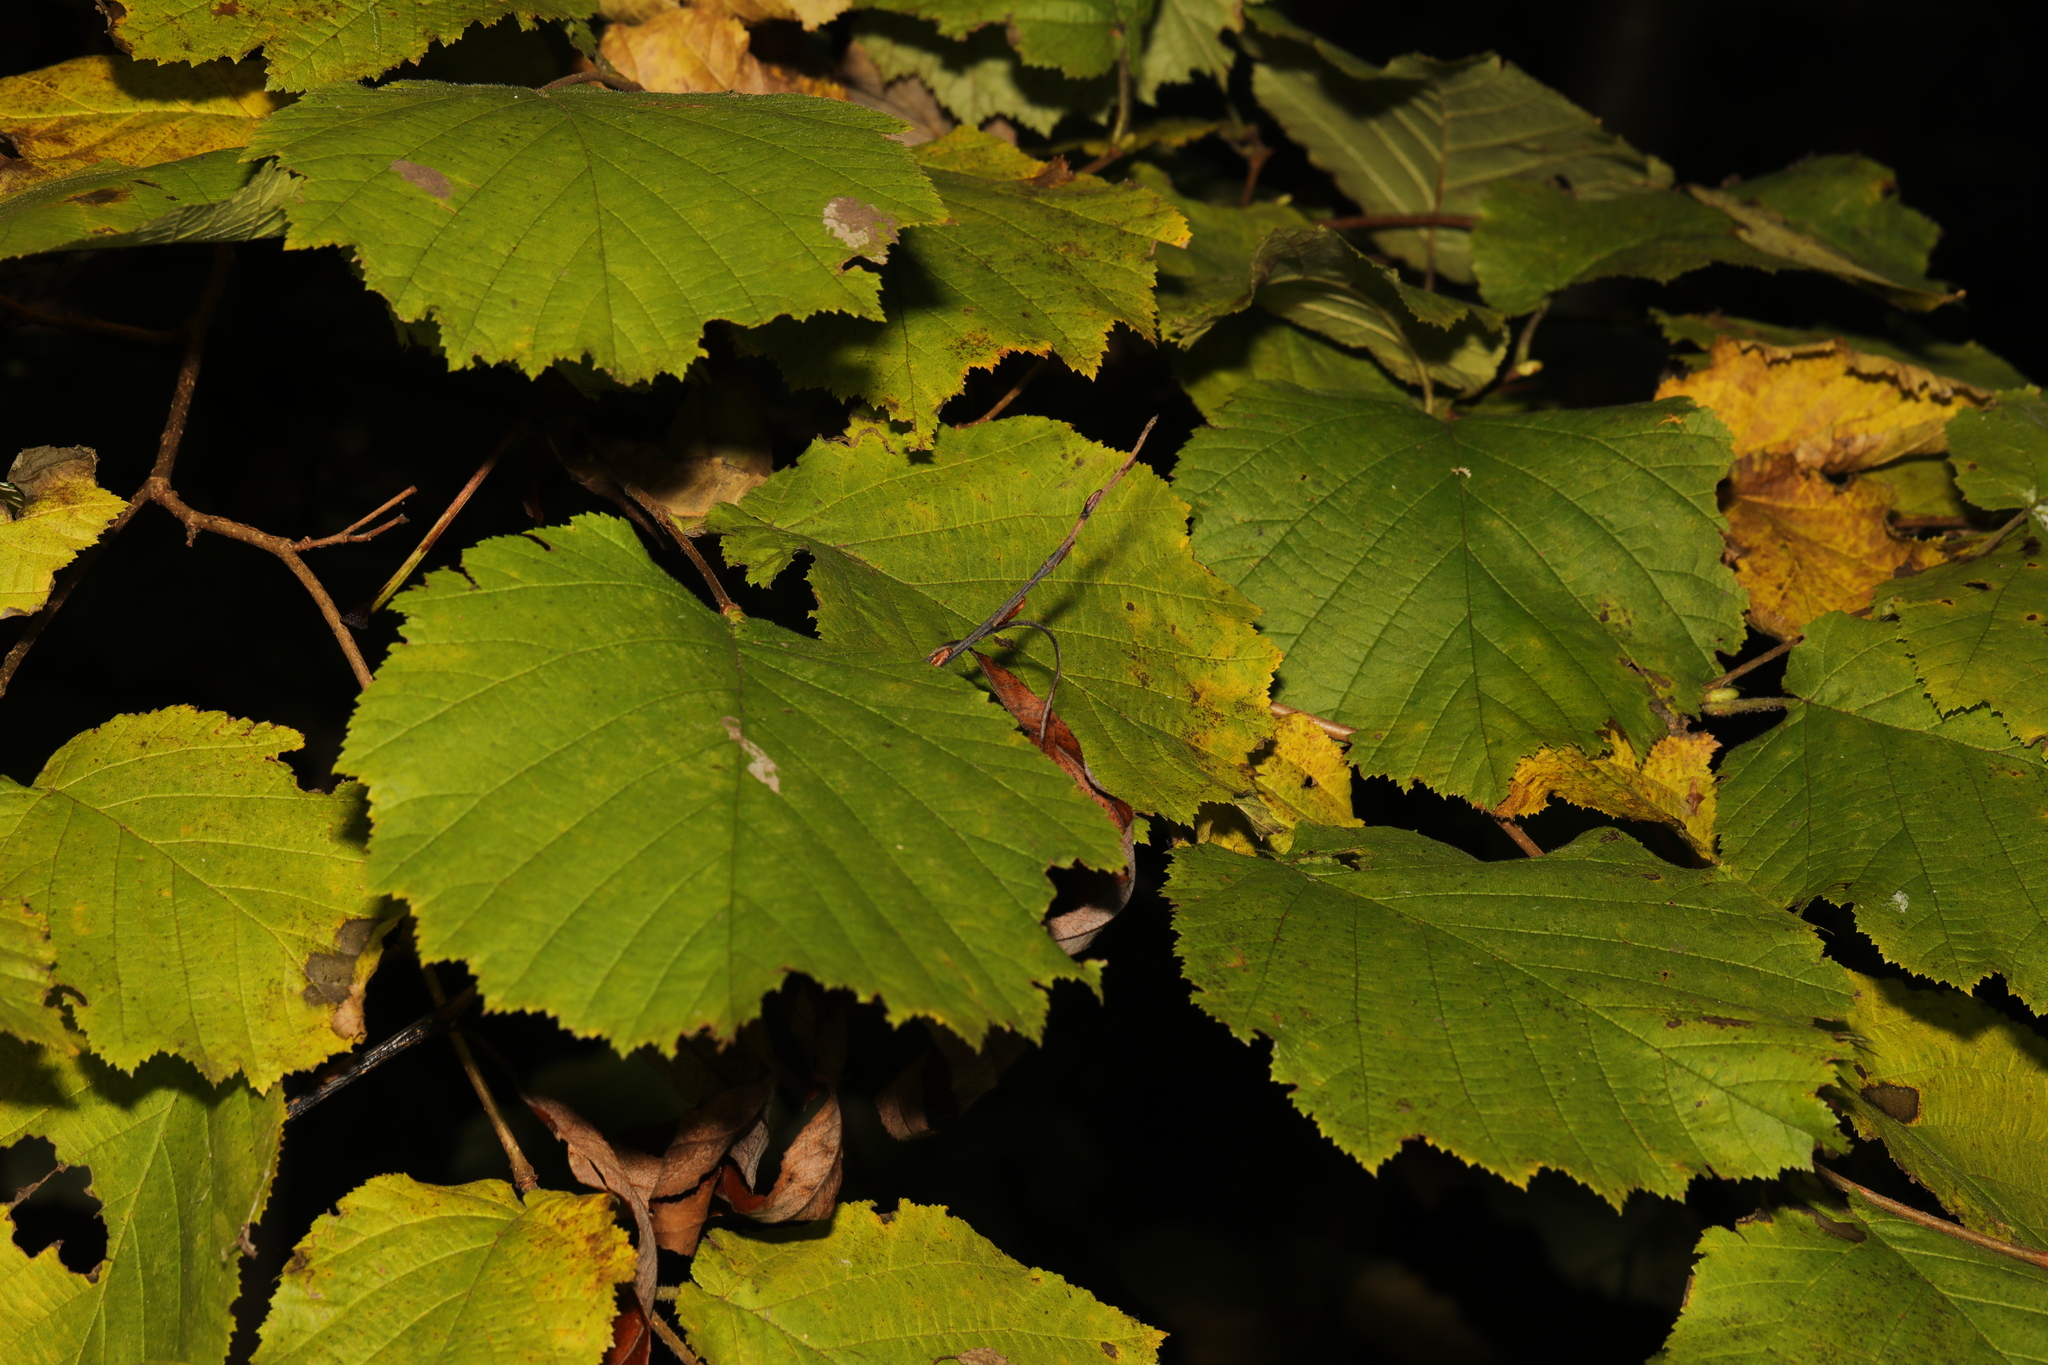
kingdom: Plantae
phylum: Tracheophyta
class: Magnoliopsida
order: Fagales
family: Betulaceae
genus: Corylus
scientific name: Corylus avellana
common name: European hazel
